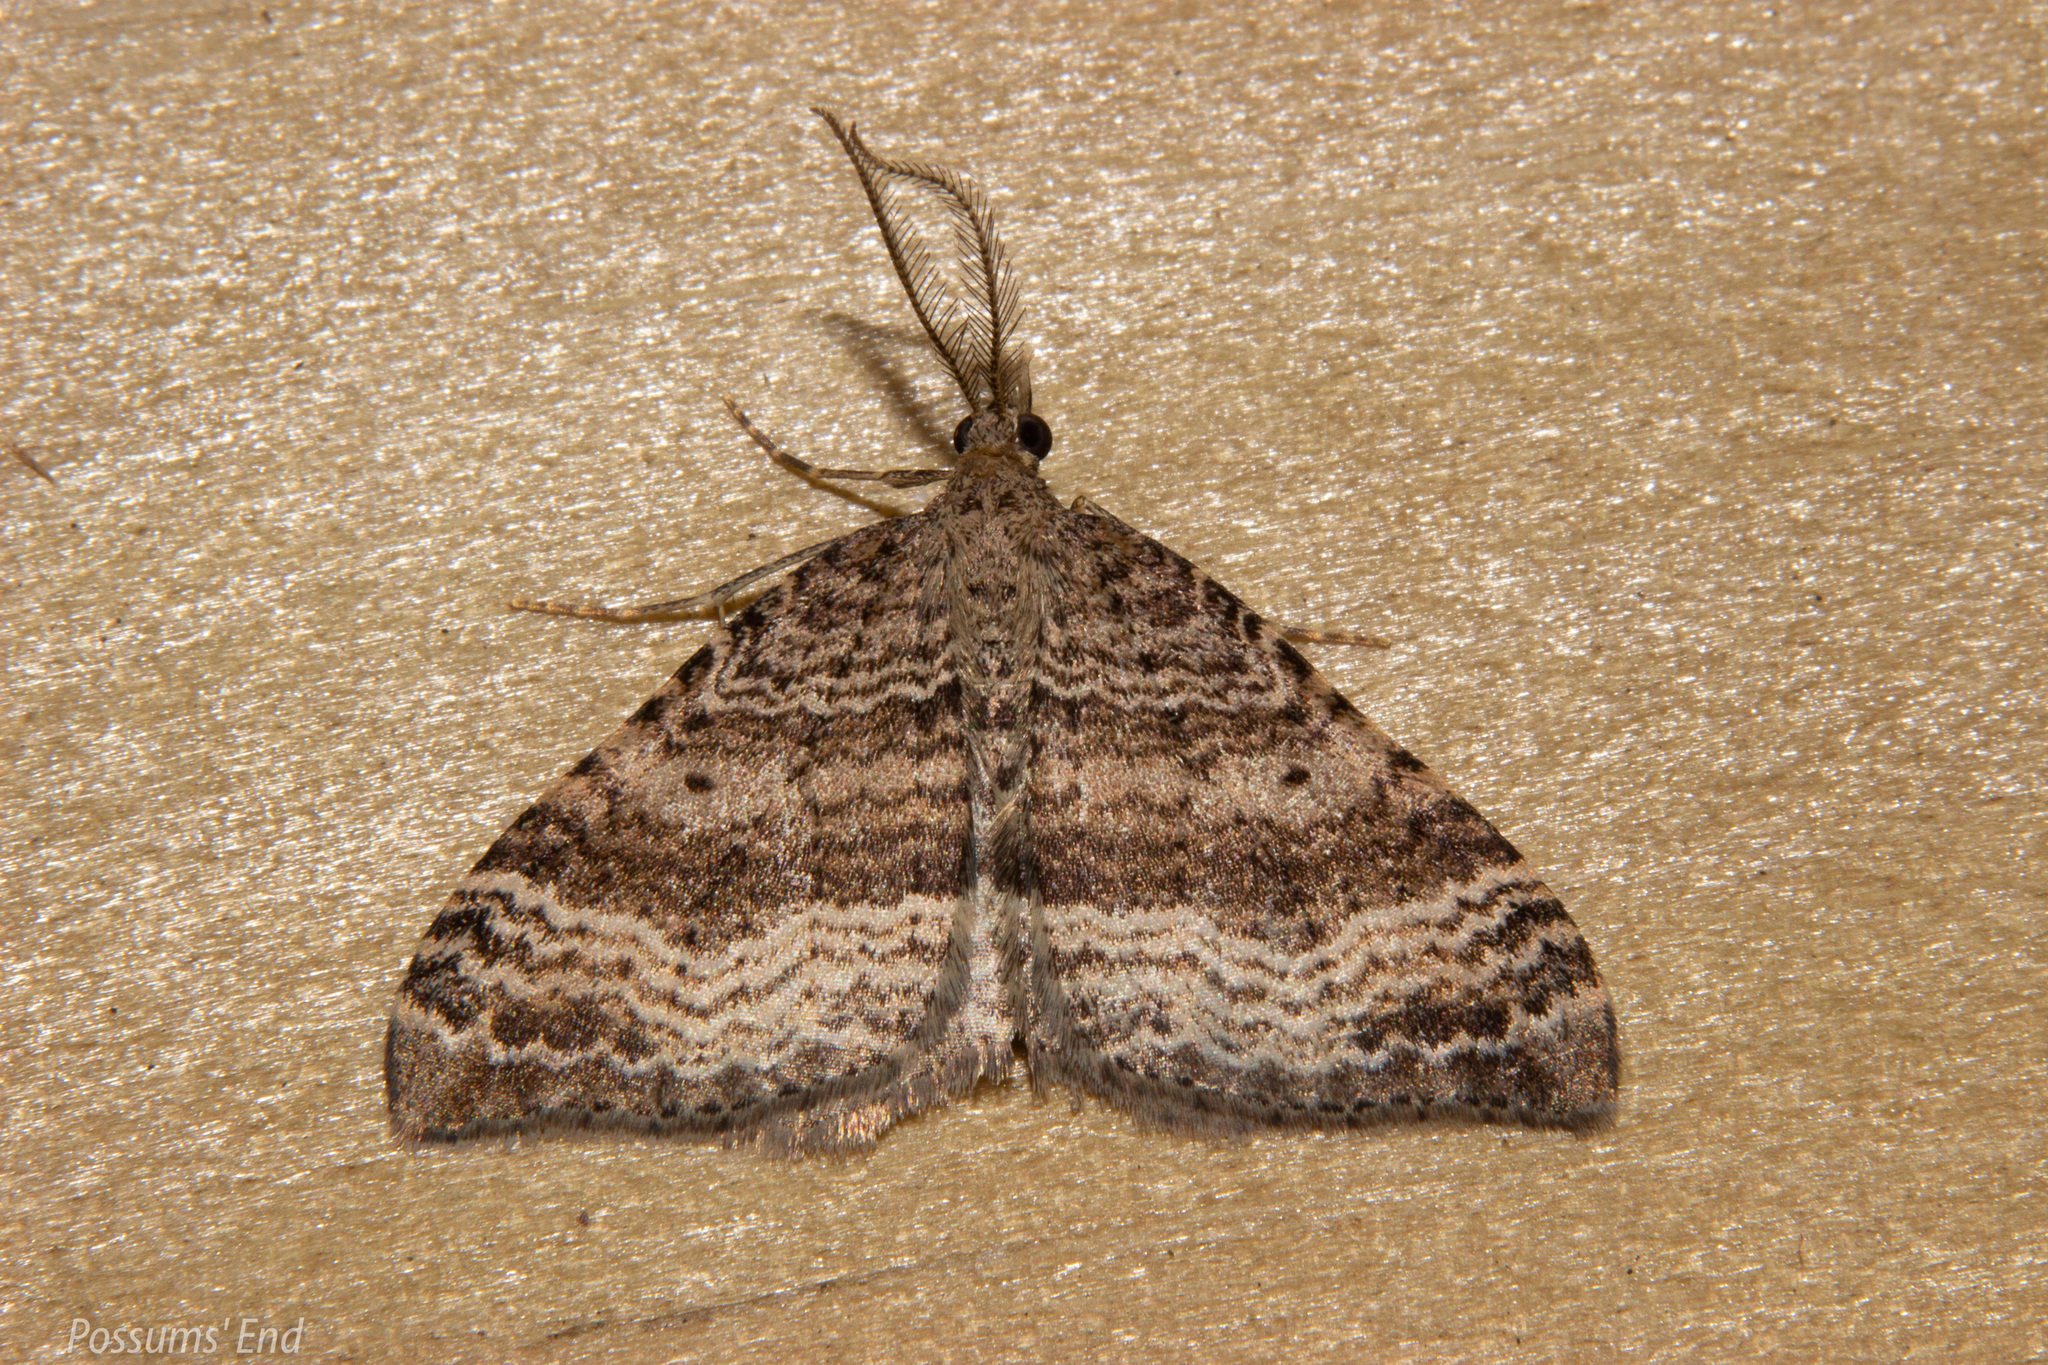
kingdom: Animalia
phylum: Arthropoda
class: Insecta
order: Lepidoptera
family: Geometridae
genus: Homodotis
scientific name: Homodotis falcata
